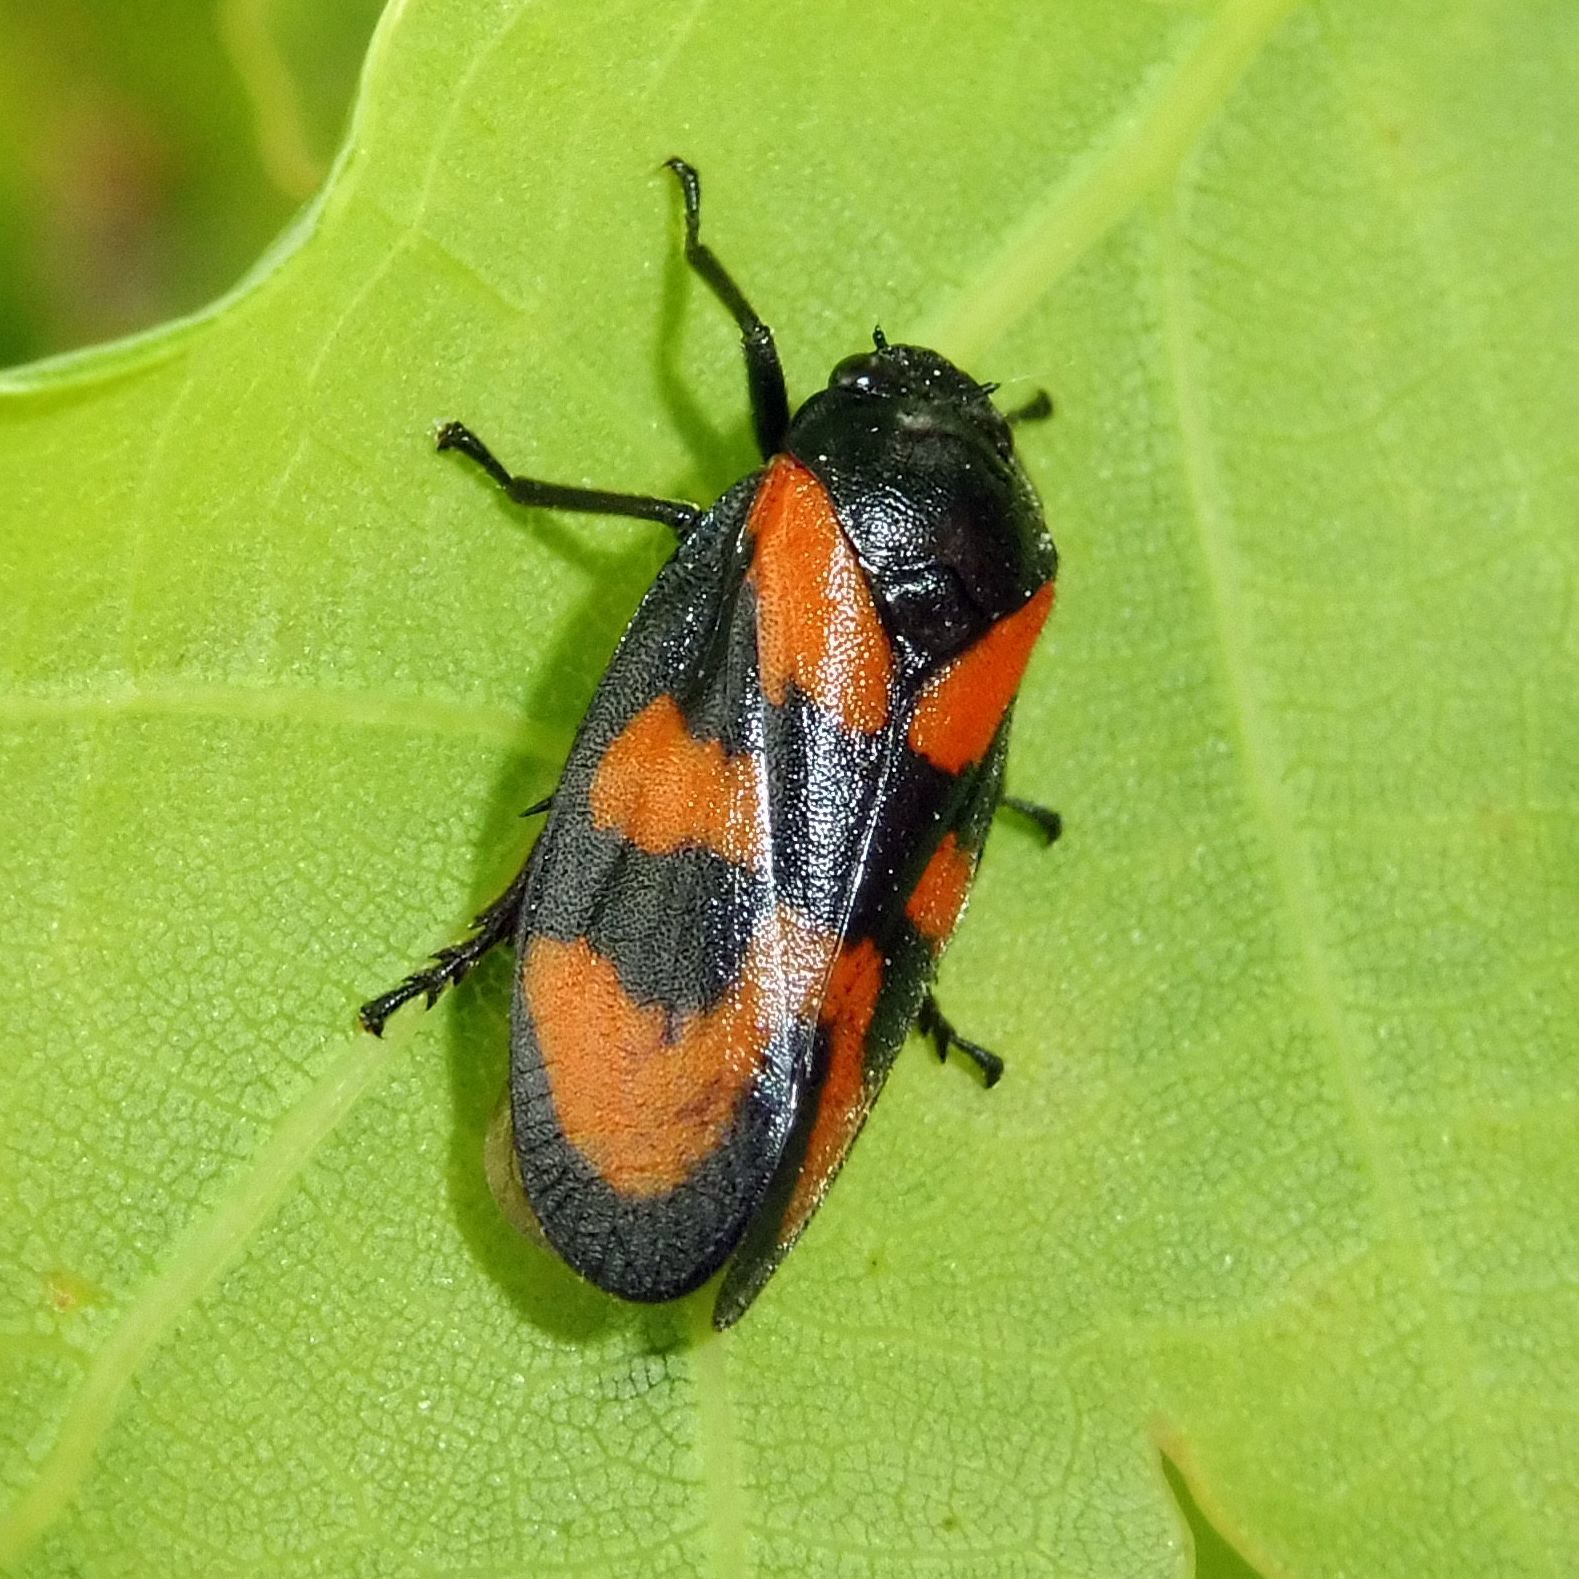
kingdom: Animalia
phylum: Arthropoda
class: Insecta
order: Hemiptera
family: Cercopidae
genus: Cercopis
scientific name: Cercopis vulnerata
